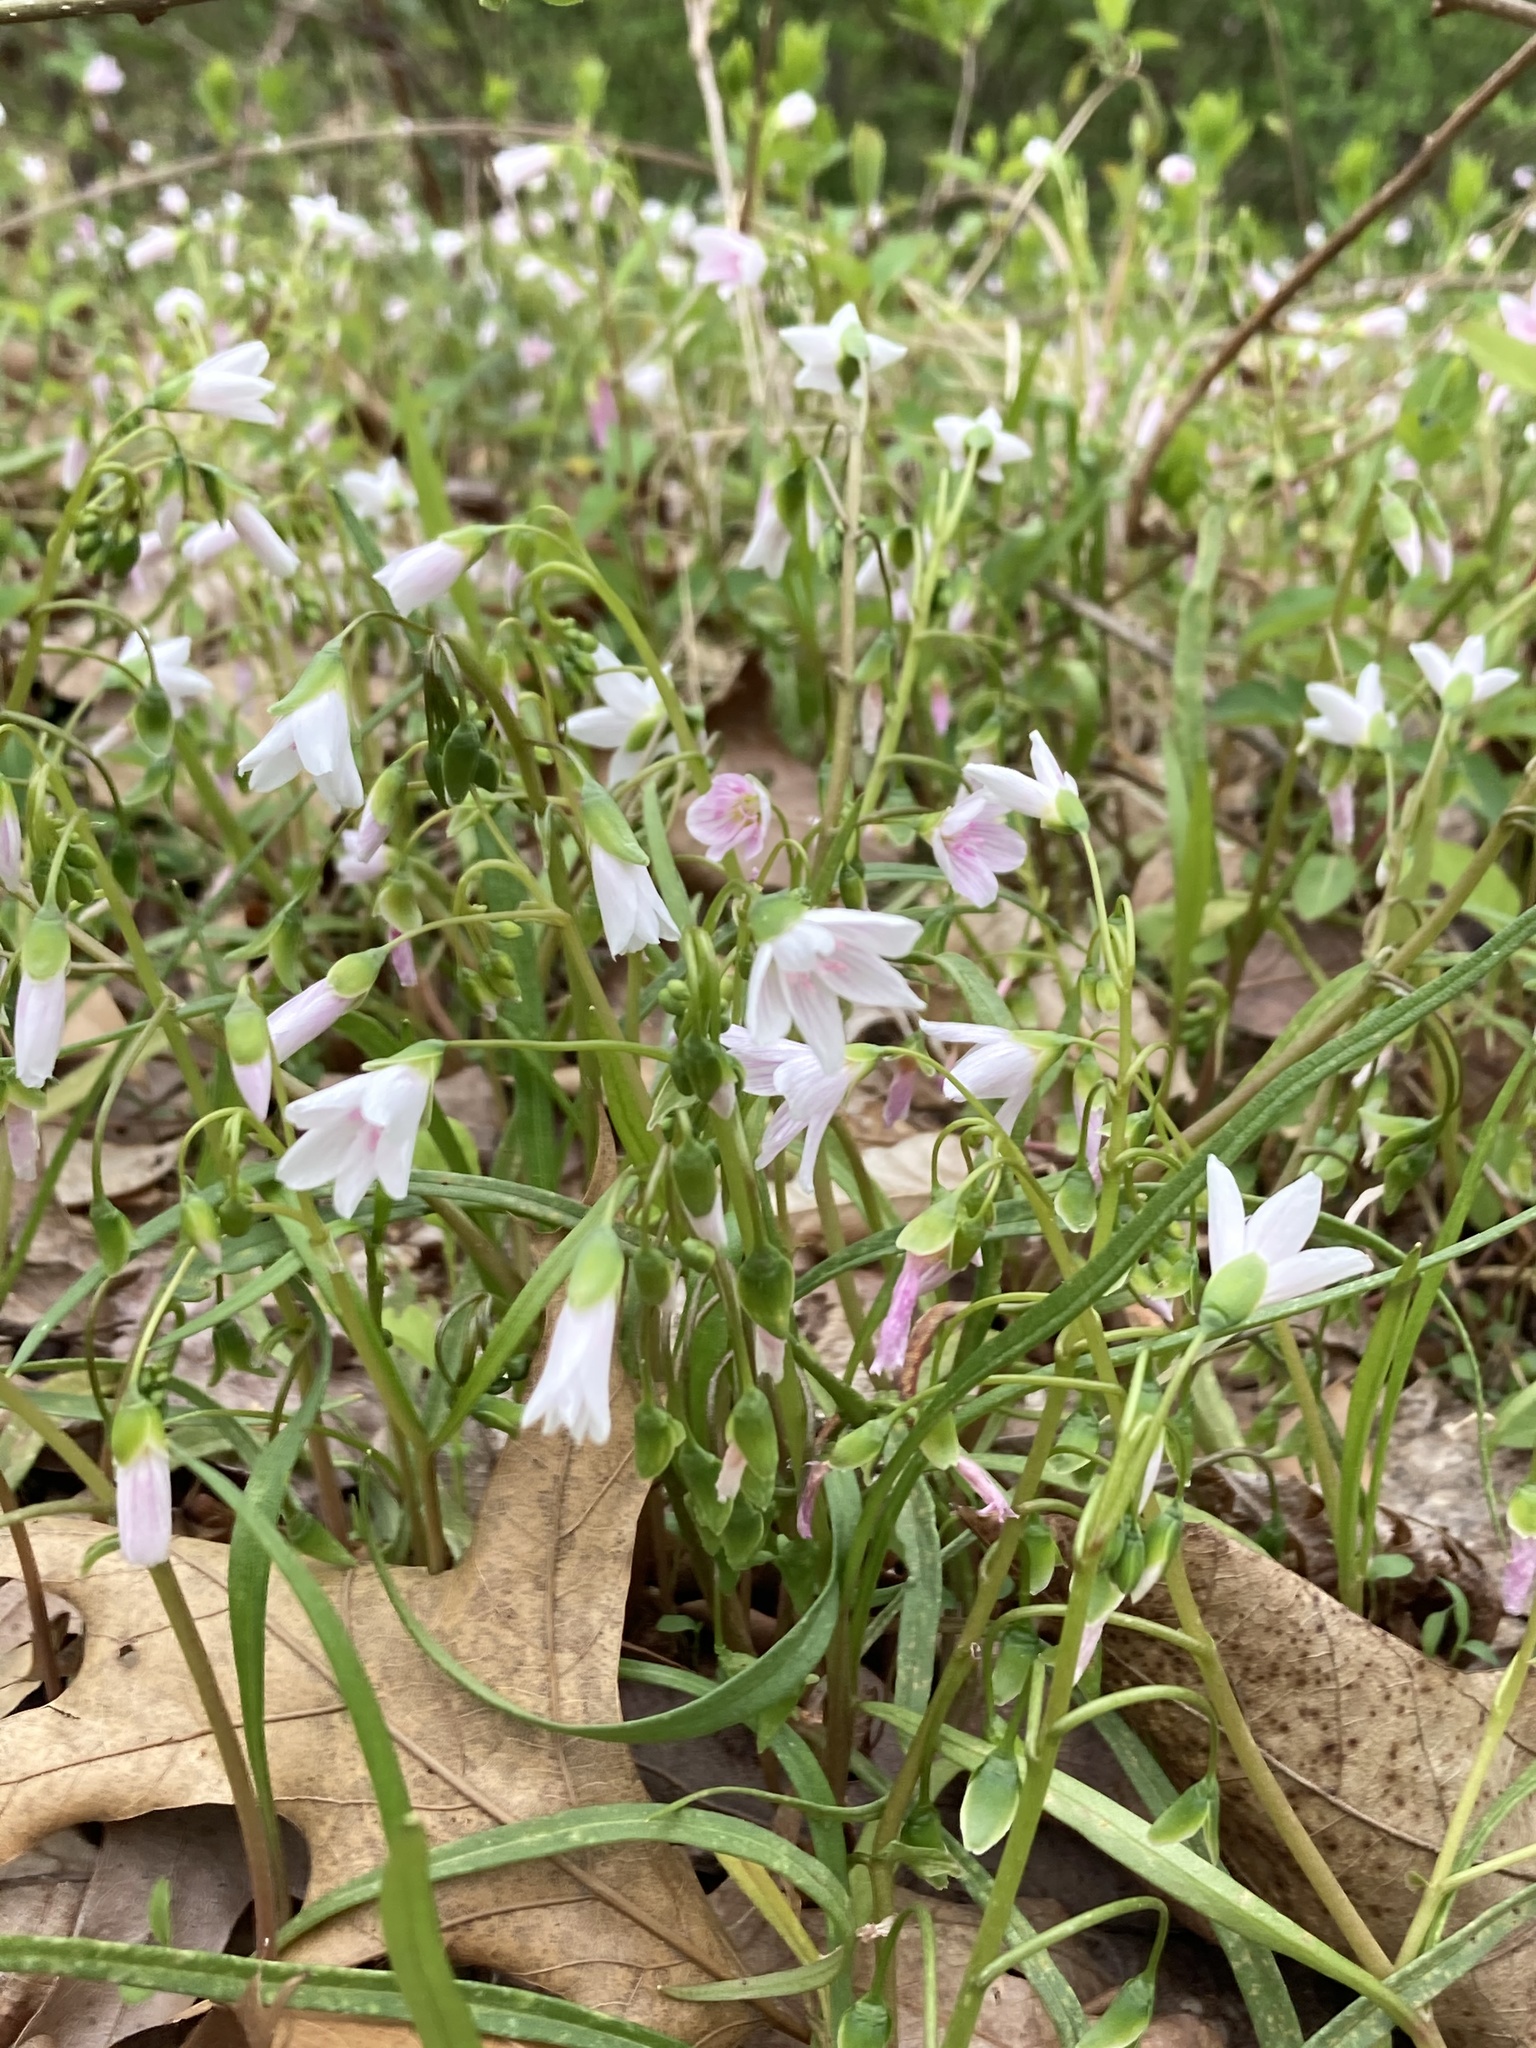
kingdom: Plantae
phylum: Tracheophyta
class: Magnoliopsida
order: Caryophyllales
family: Montiaceae
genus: Claytonia
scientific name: Claytonia virginica
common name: Virginia springbeauty
